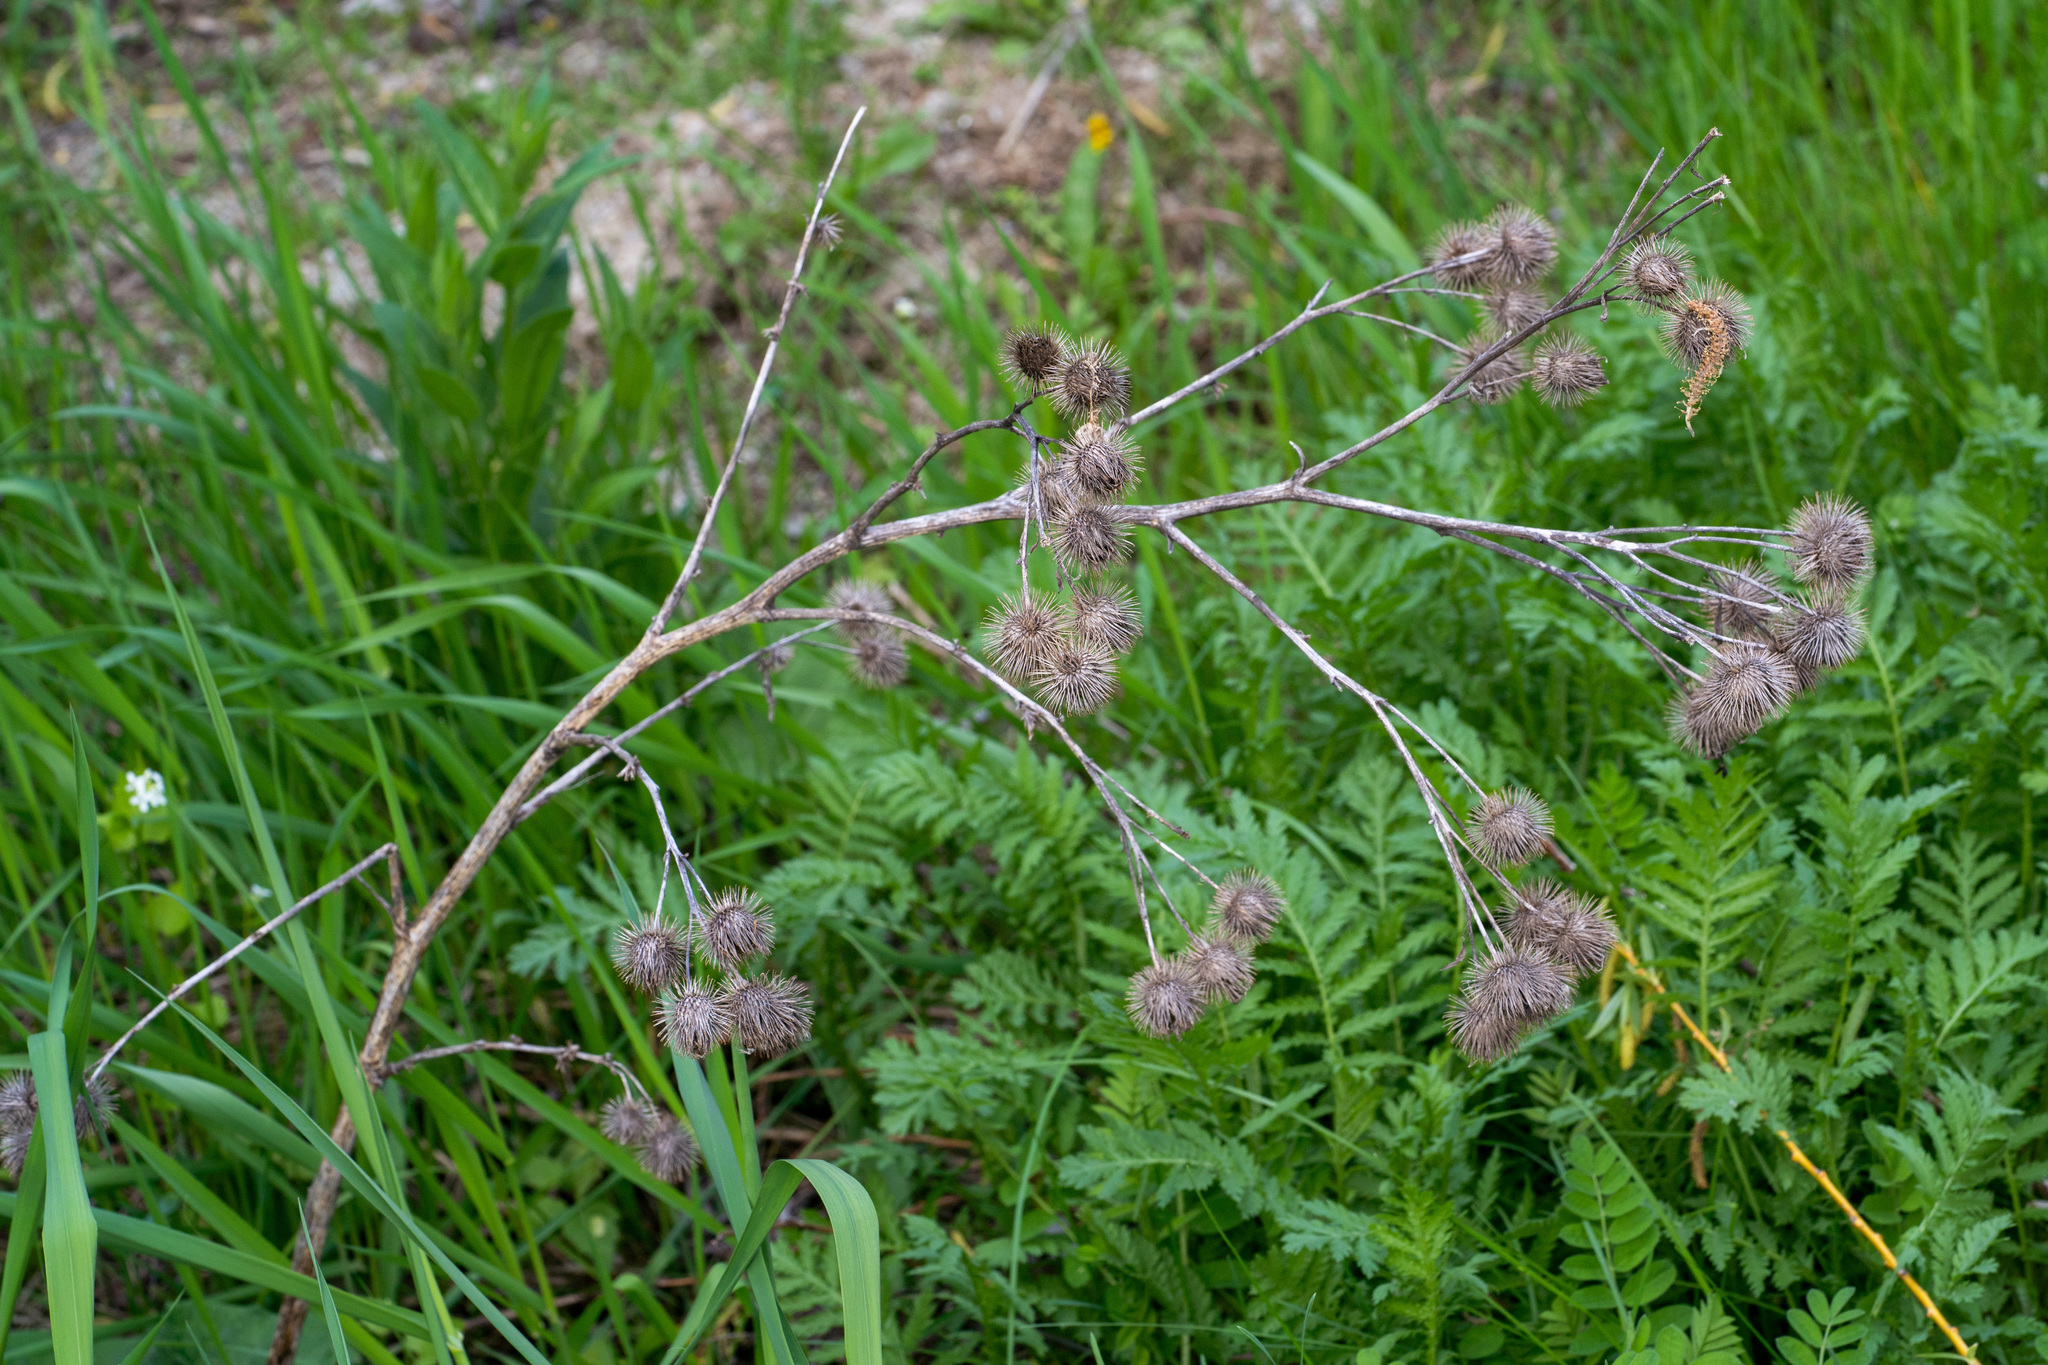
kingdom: Plantae
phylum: Tracheophyta
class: Magnoliopsida
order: Asterales
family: Asteraceae
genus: Arctium
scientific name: Arctium lappa
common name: Greater burdock
